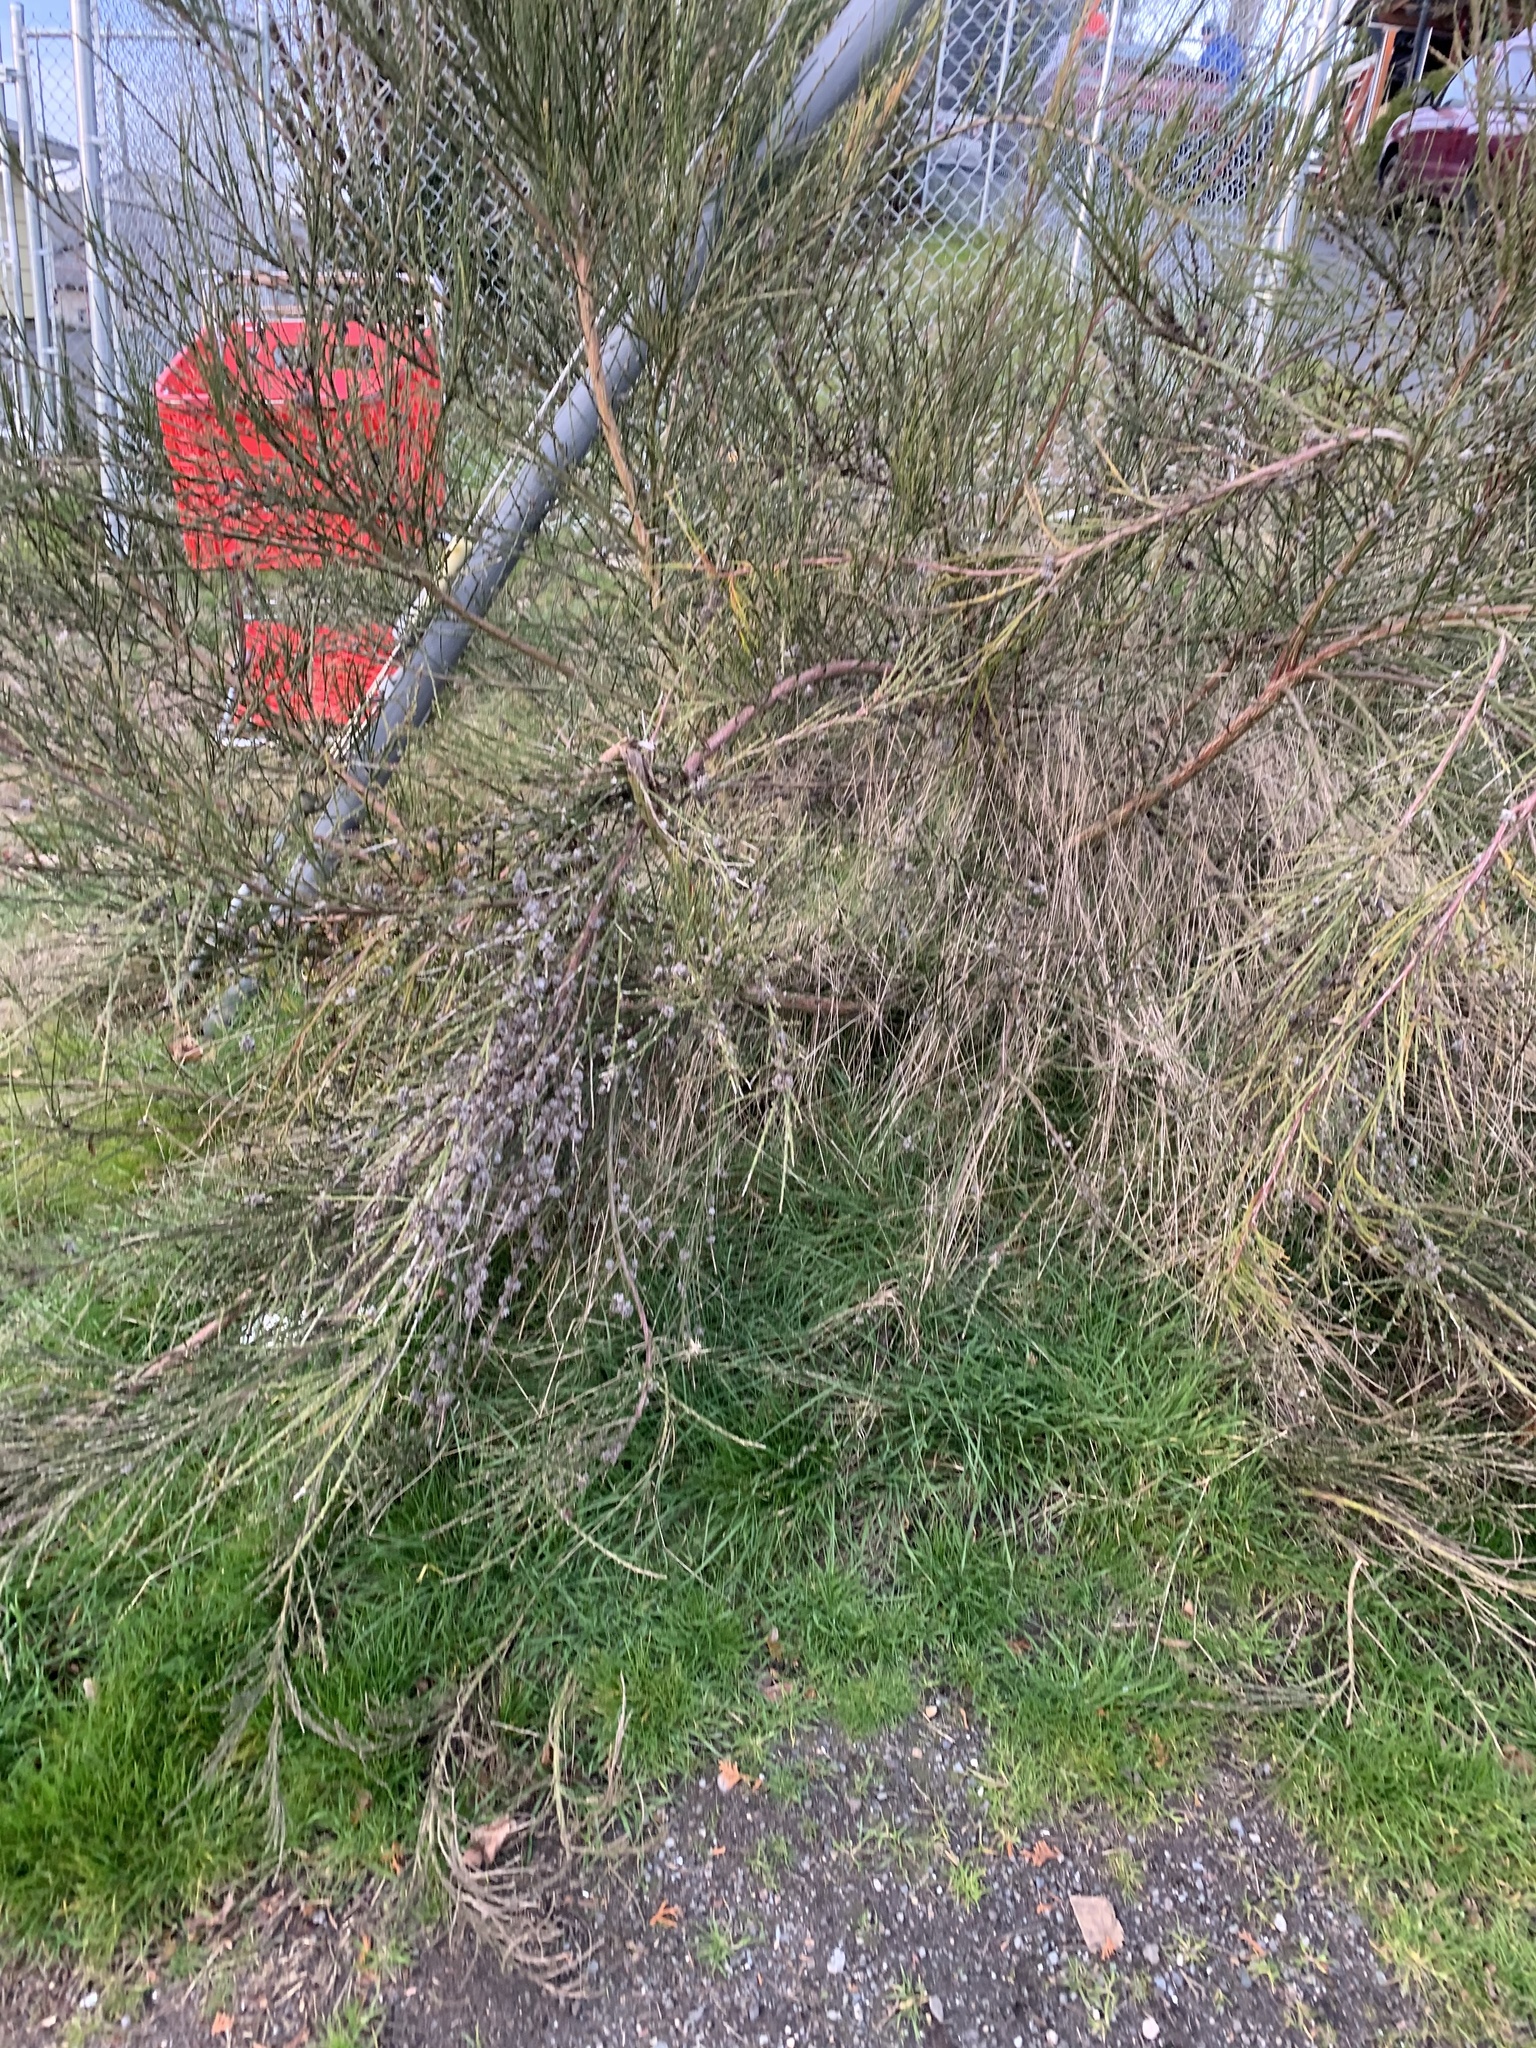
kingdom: Animalia
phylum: Arthropoda
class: Arachnida
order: Trombidiformes
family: Eriophyidae
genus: Aceria
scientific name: Aceria genistae
